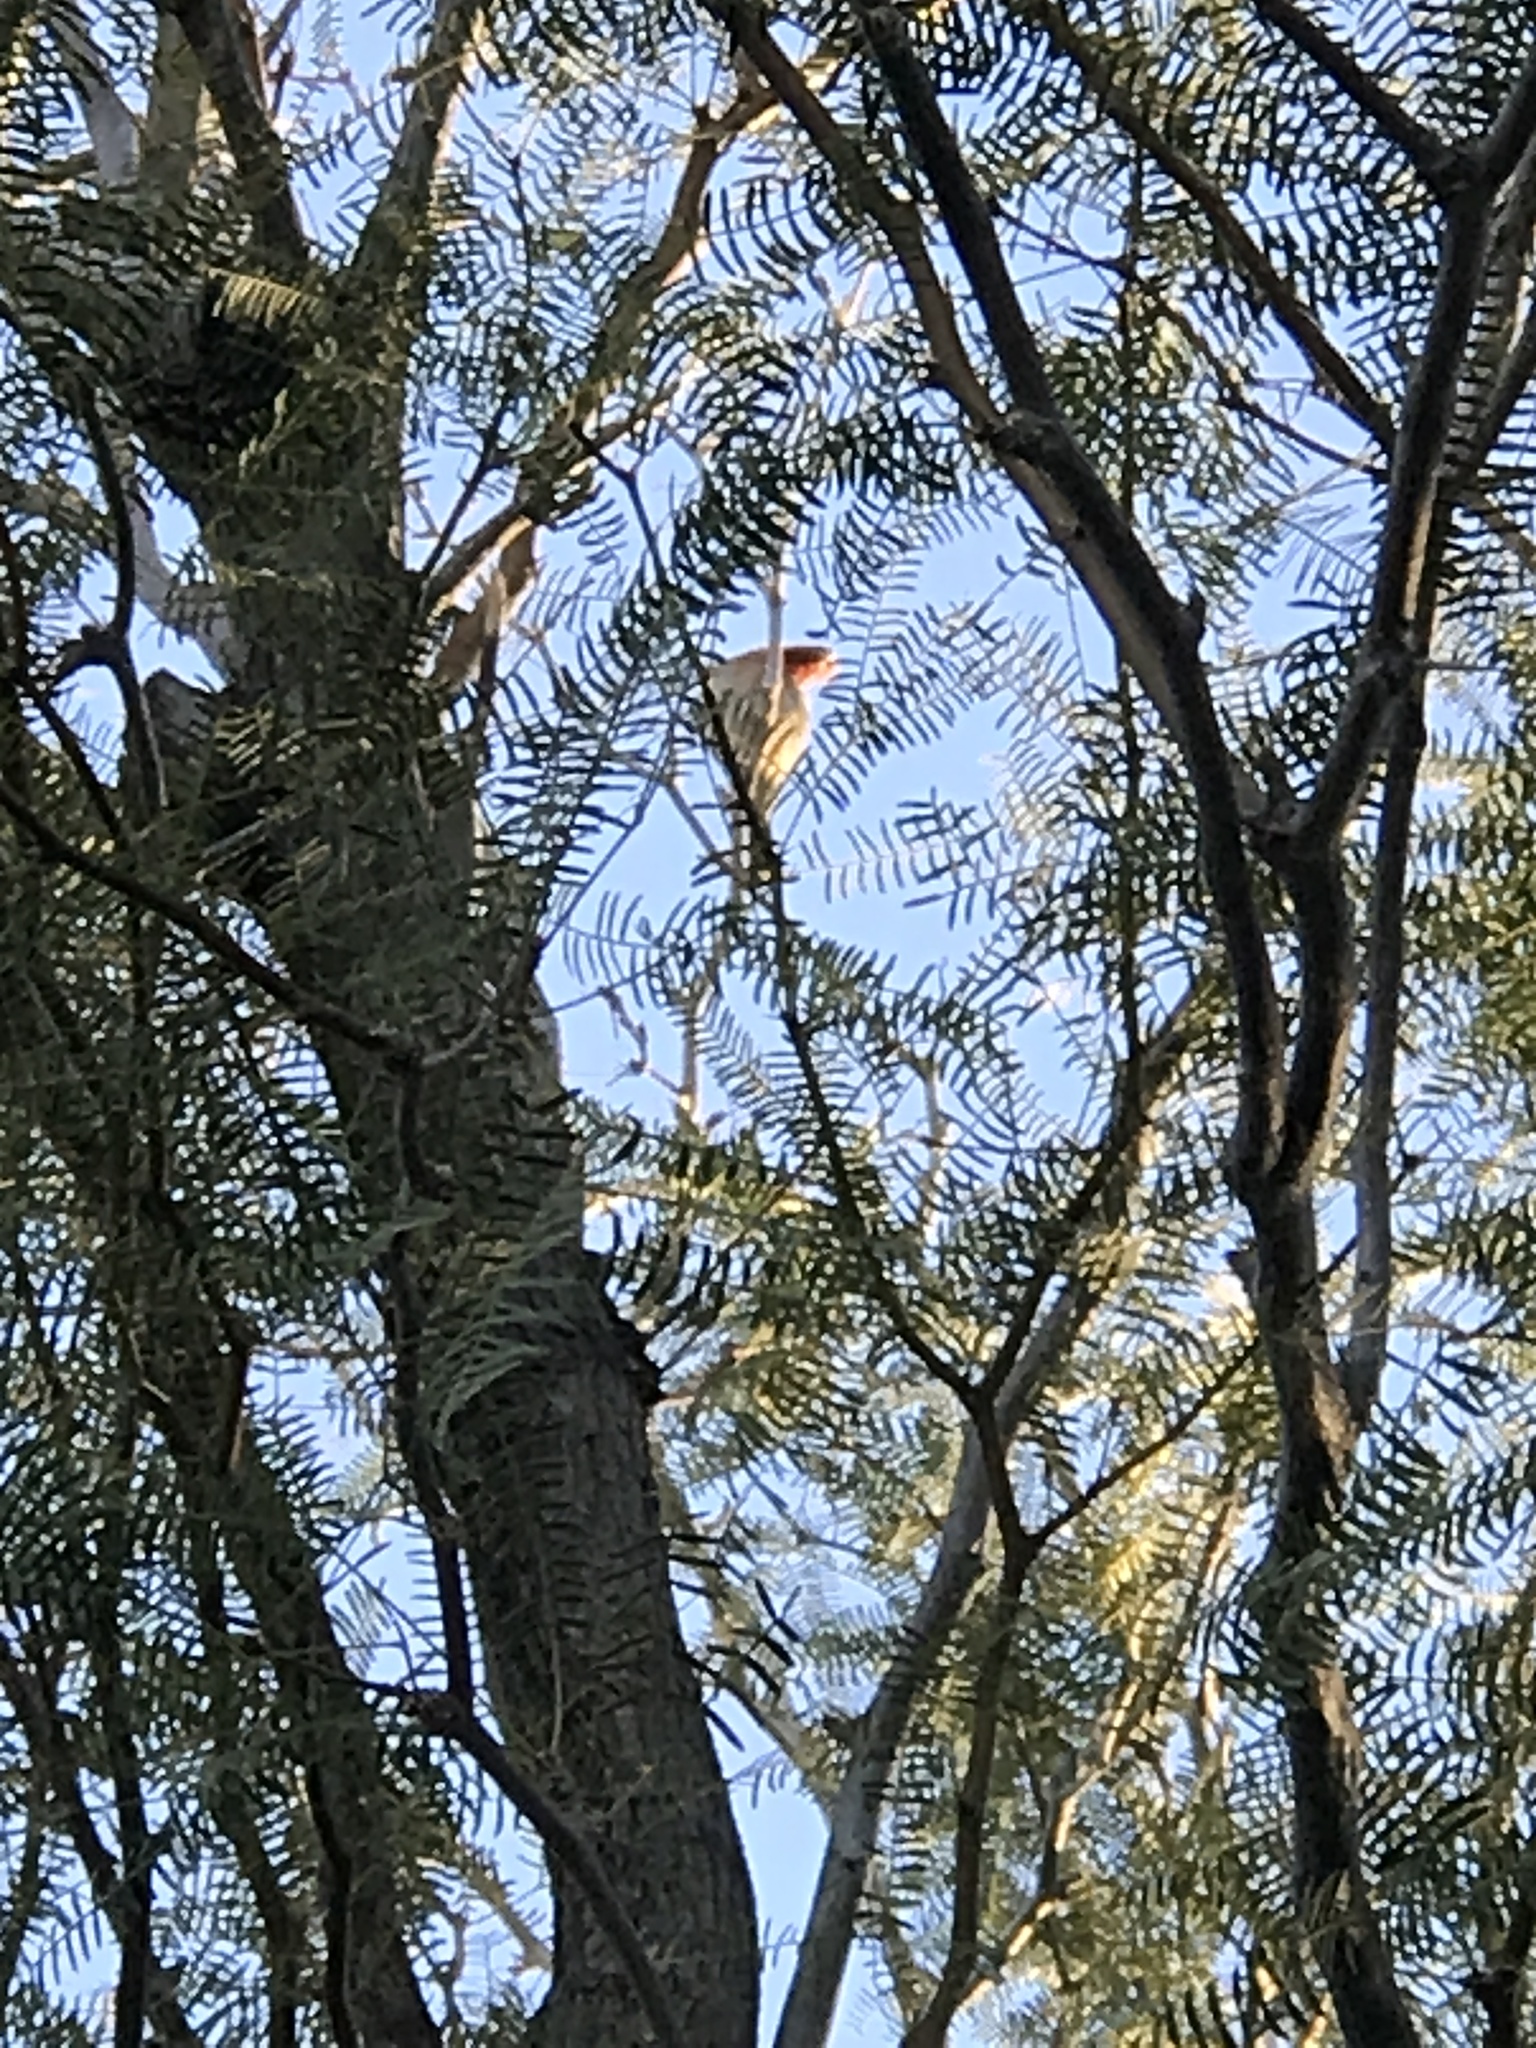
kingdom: Animalia
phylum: Chordata
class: Aves
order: Passeriformes
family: Fringillidae
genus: Haemorhous
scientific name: Haemorhous mexicanus
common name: House finch
